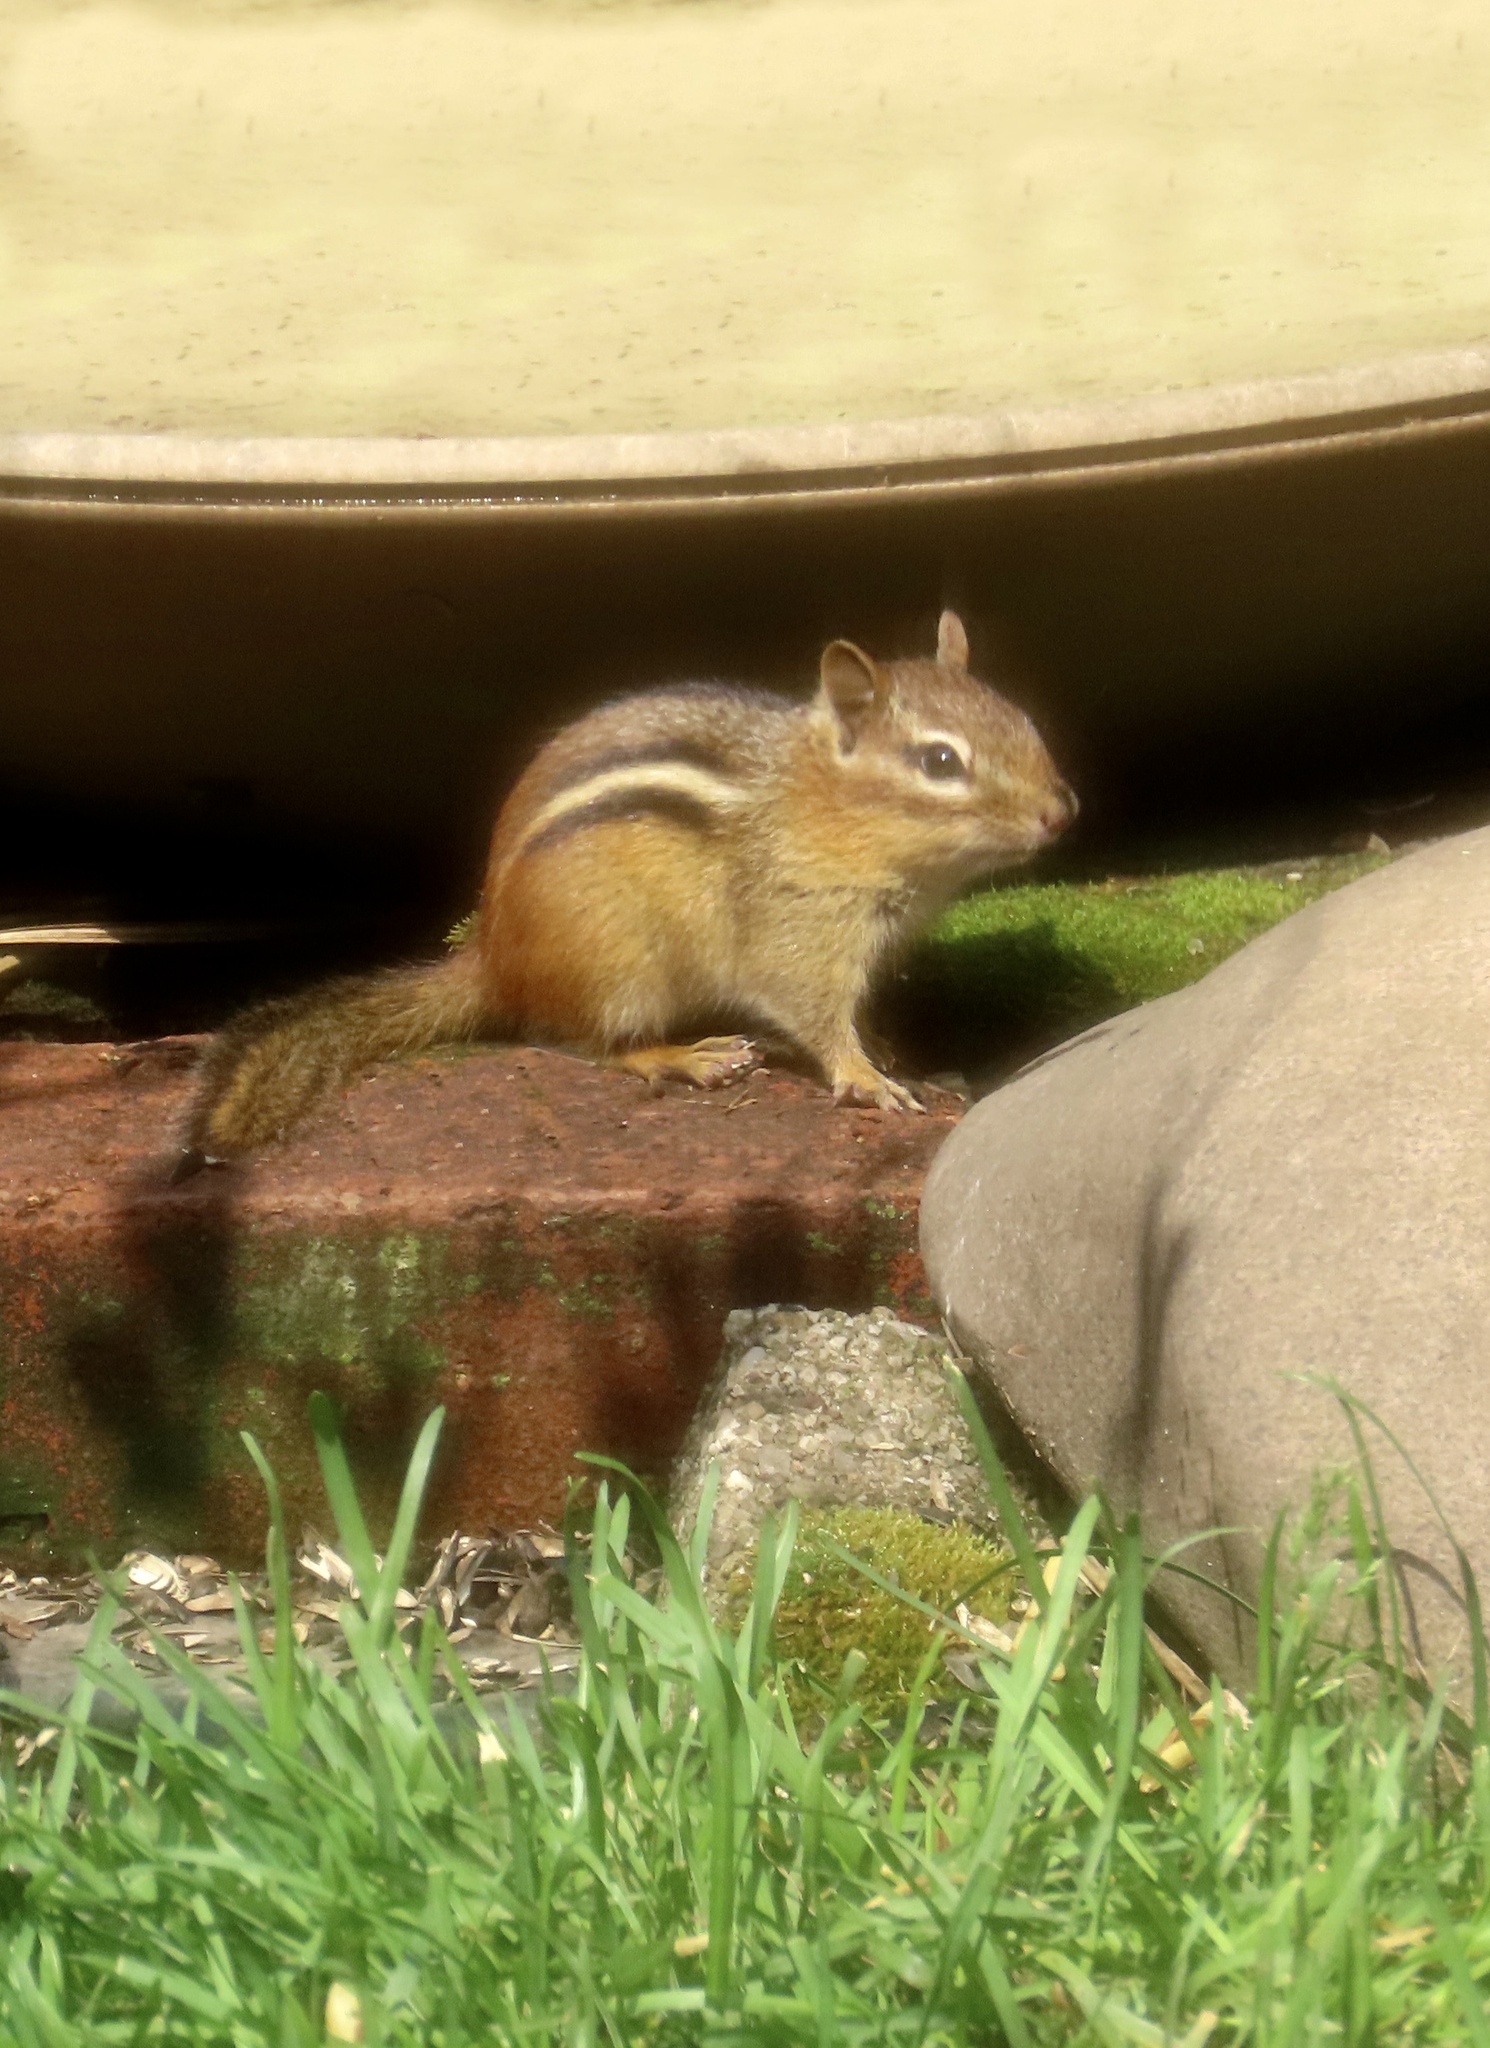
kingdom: Animalia
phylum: Chordata
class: Mammalia
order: Rodentia
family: Sciuridae
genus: Tamias
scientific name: Tamias striatus
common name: Eastern chipmunk
